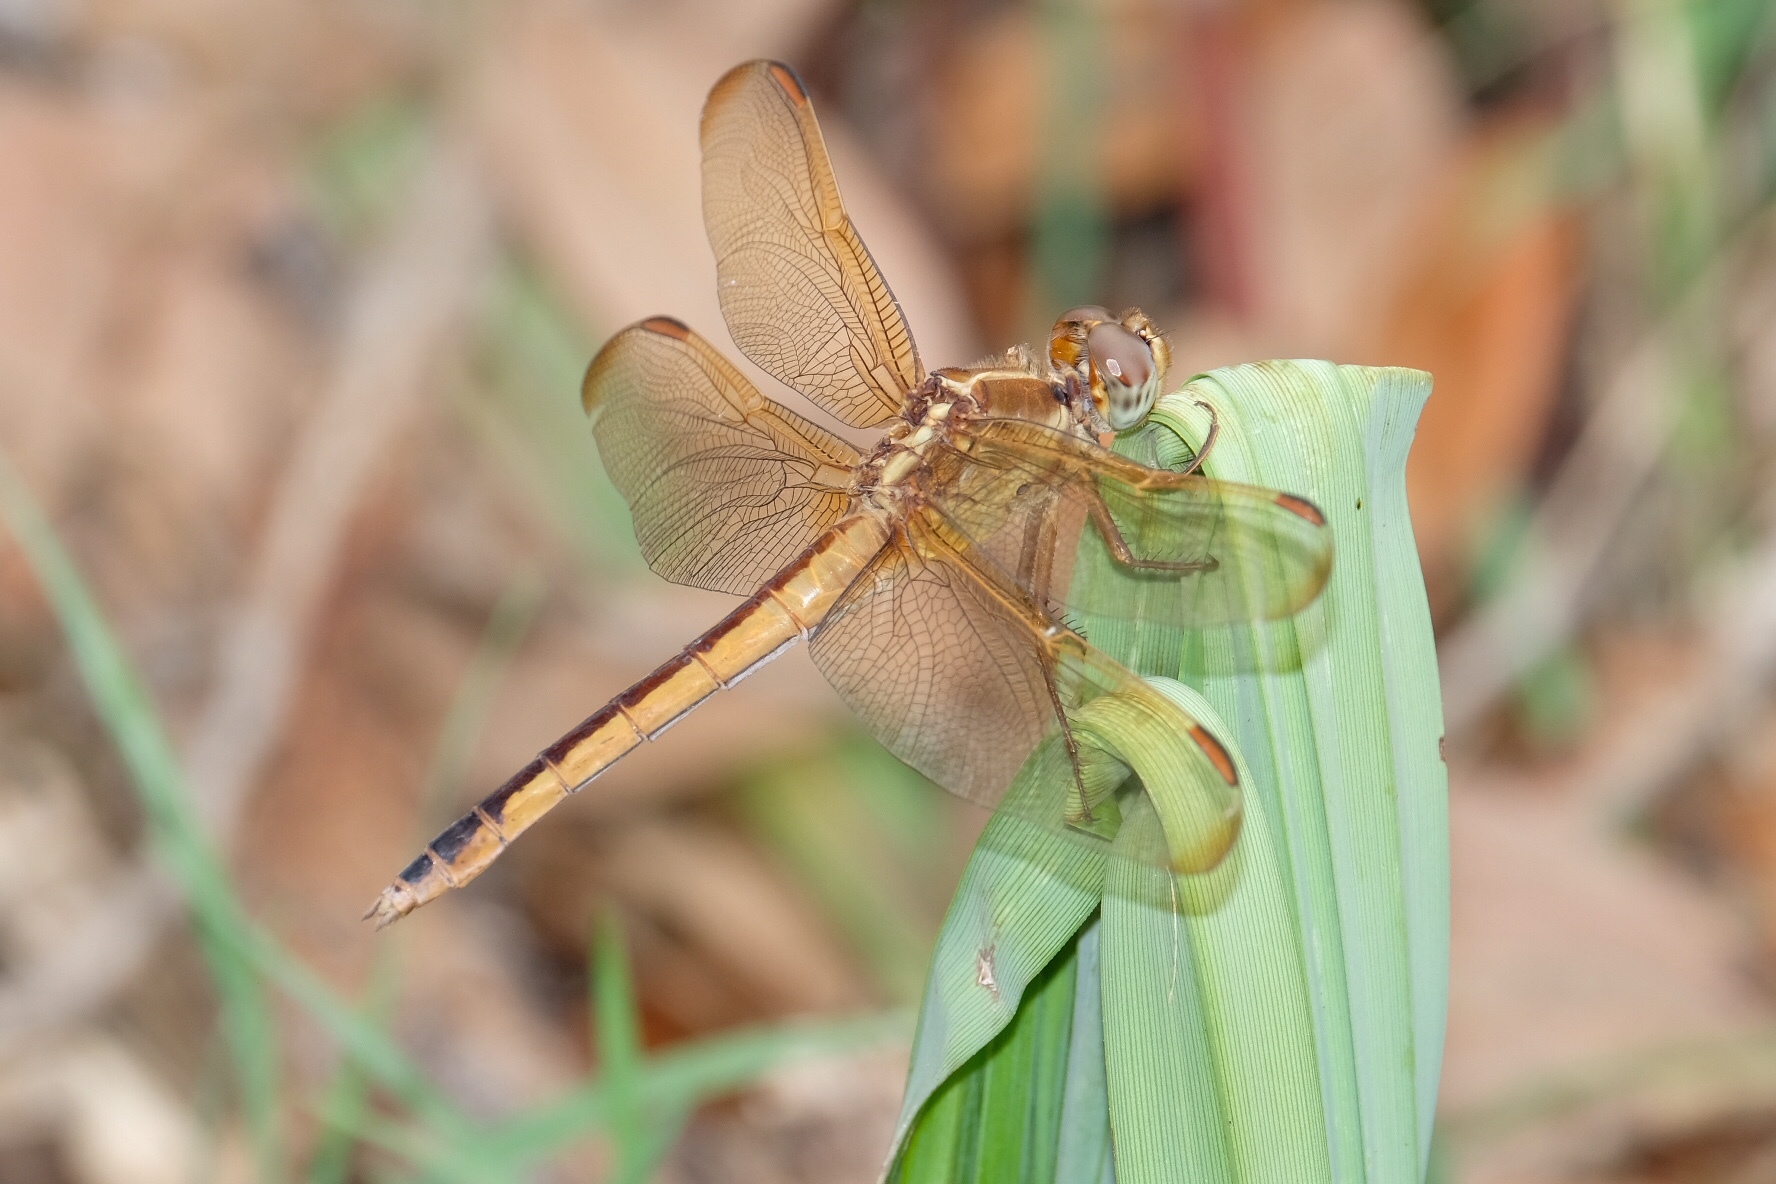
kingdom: Animalia
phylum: Arthropoda
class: Insecta
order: Odonata
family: Libellulidae
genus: Libellula
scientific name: Libellula needhami
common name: Needham's skimmer
